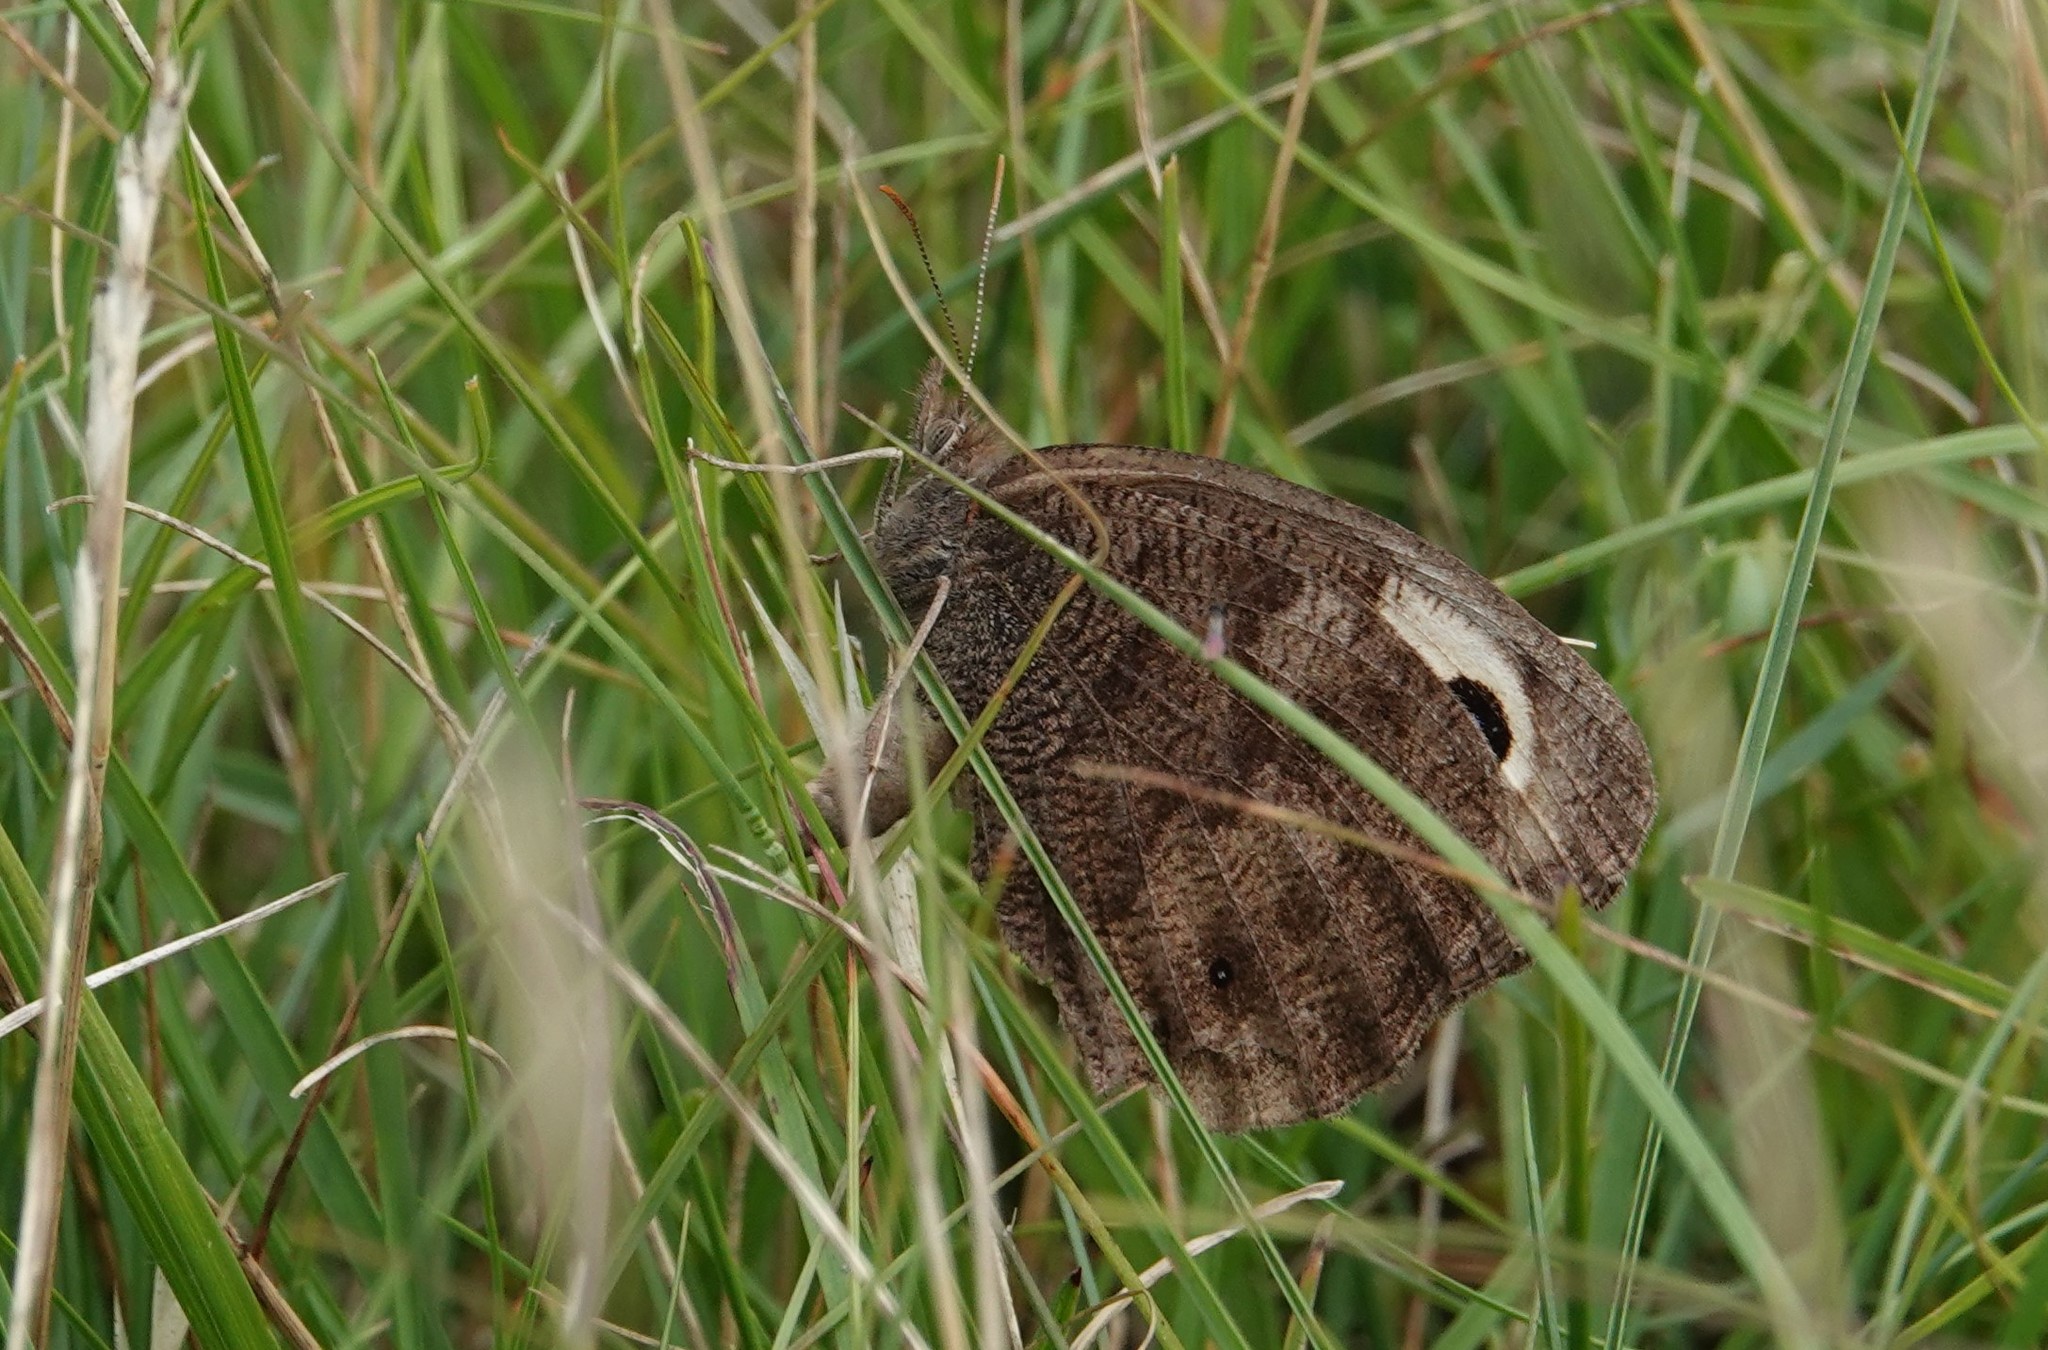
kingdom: Animalia
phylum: Arthropoda
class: Insecta
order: Lepidoptera
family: Nymphalidae
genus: Cercyonis
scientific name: Cercyonis pegala
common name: Common wood-nymph
